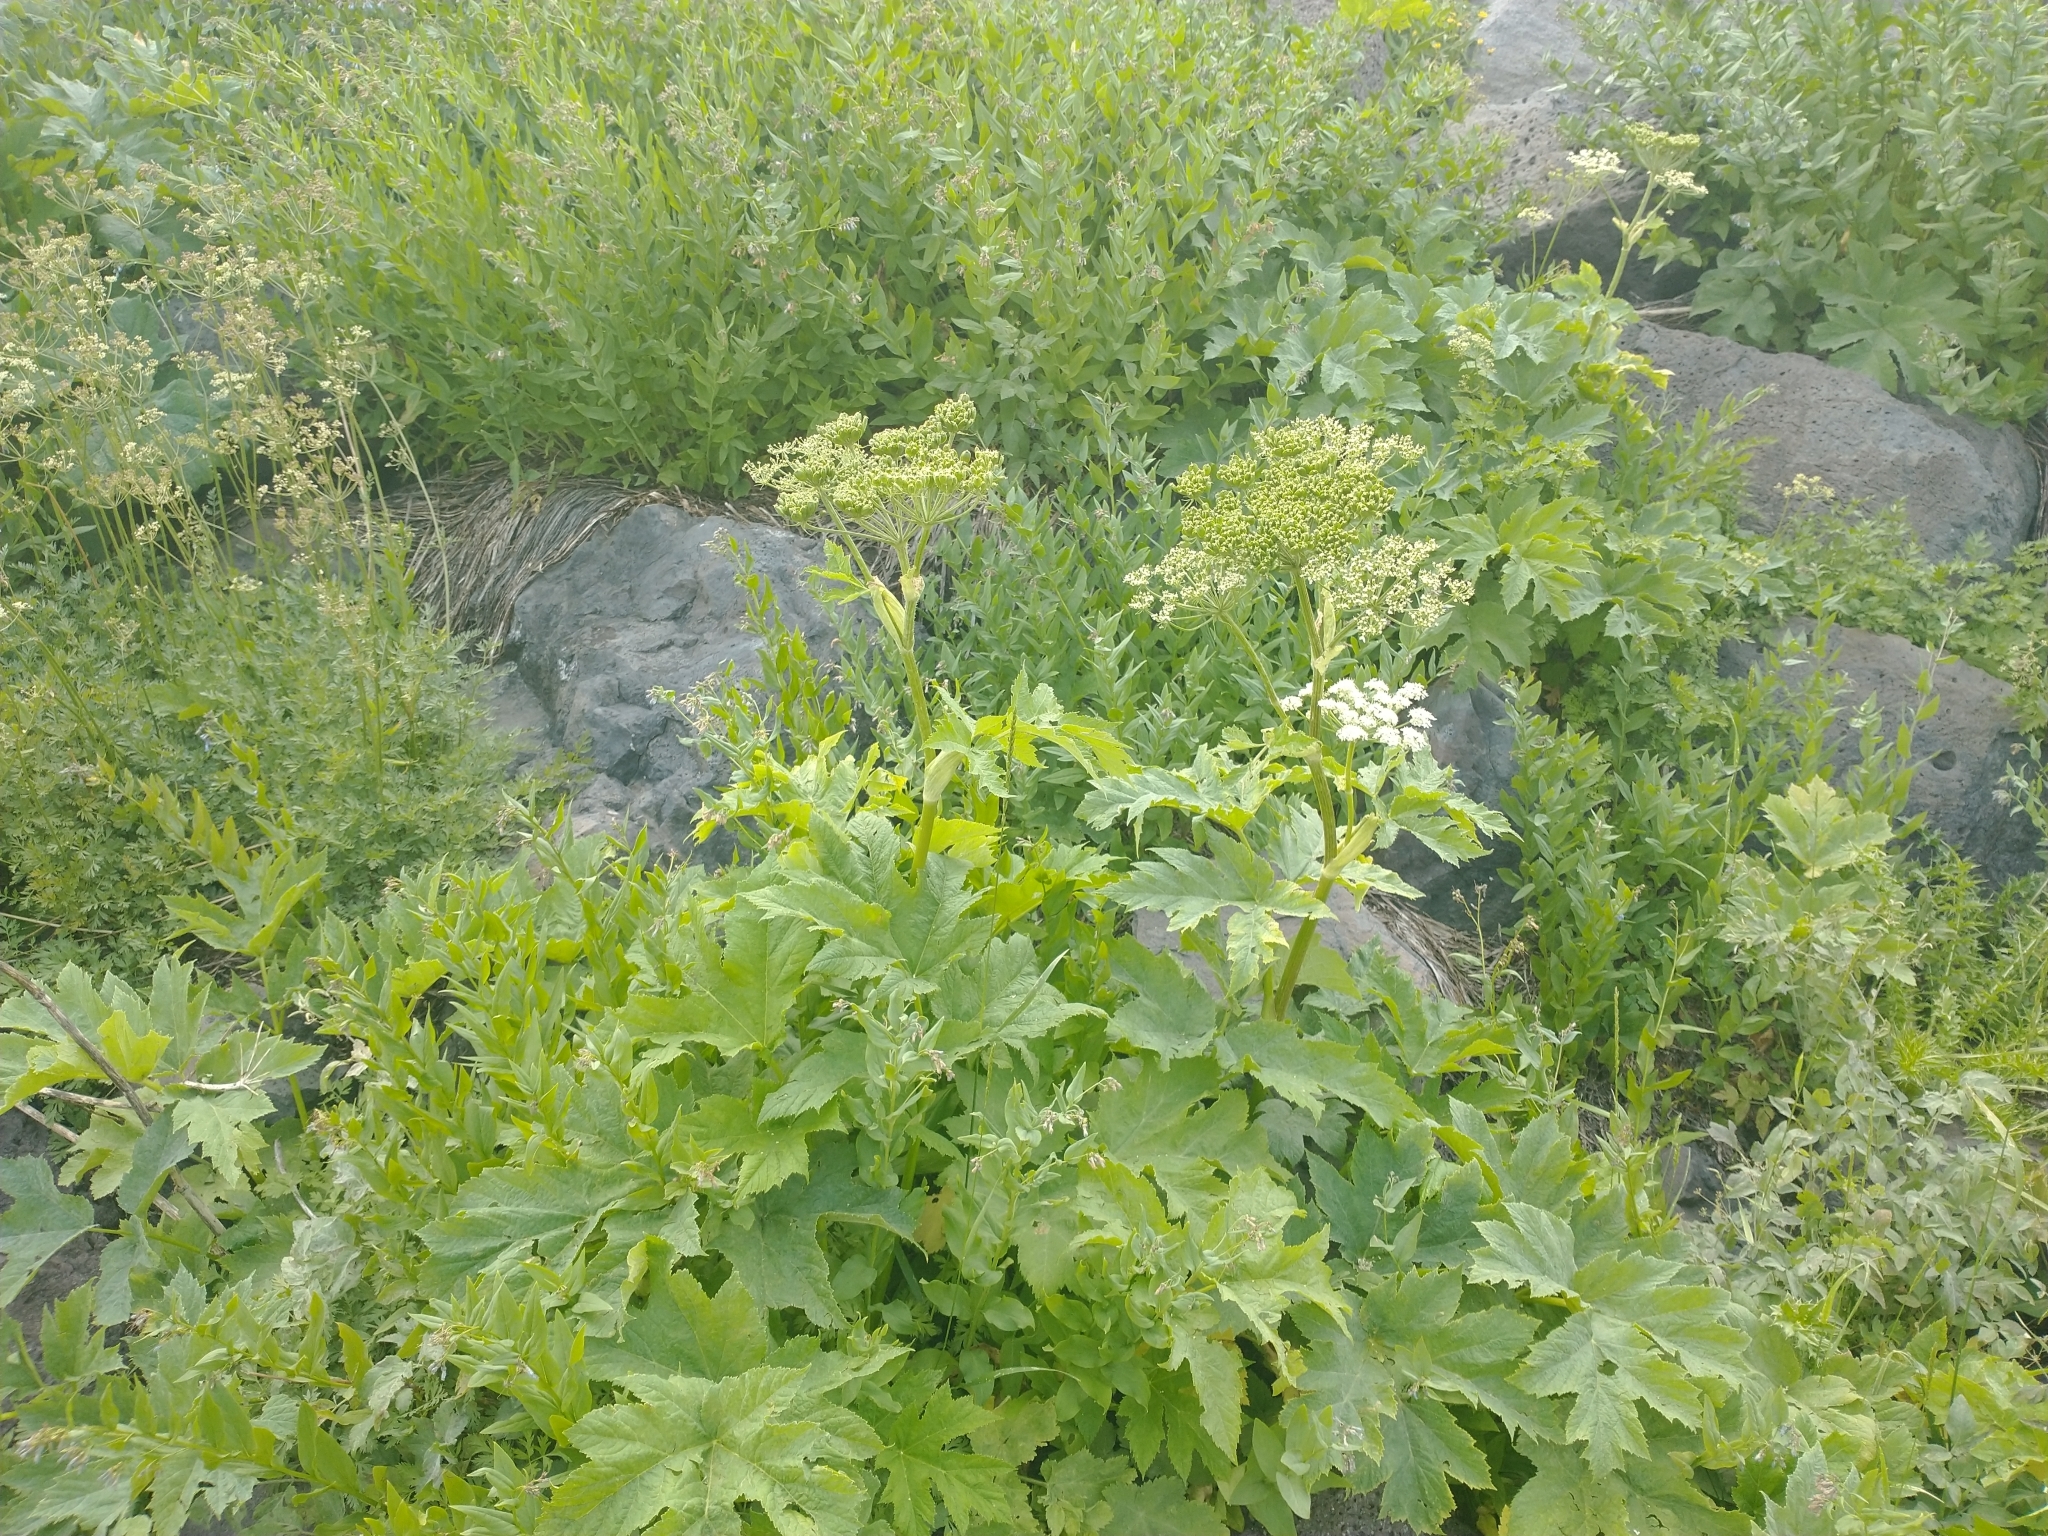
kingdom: Plantae
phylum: Tracheophyta
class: Magnoliopsida
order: Apiales
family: Apiaceae
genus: Heracleum
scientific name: Heracleum maximum
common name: American cow parsnip
